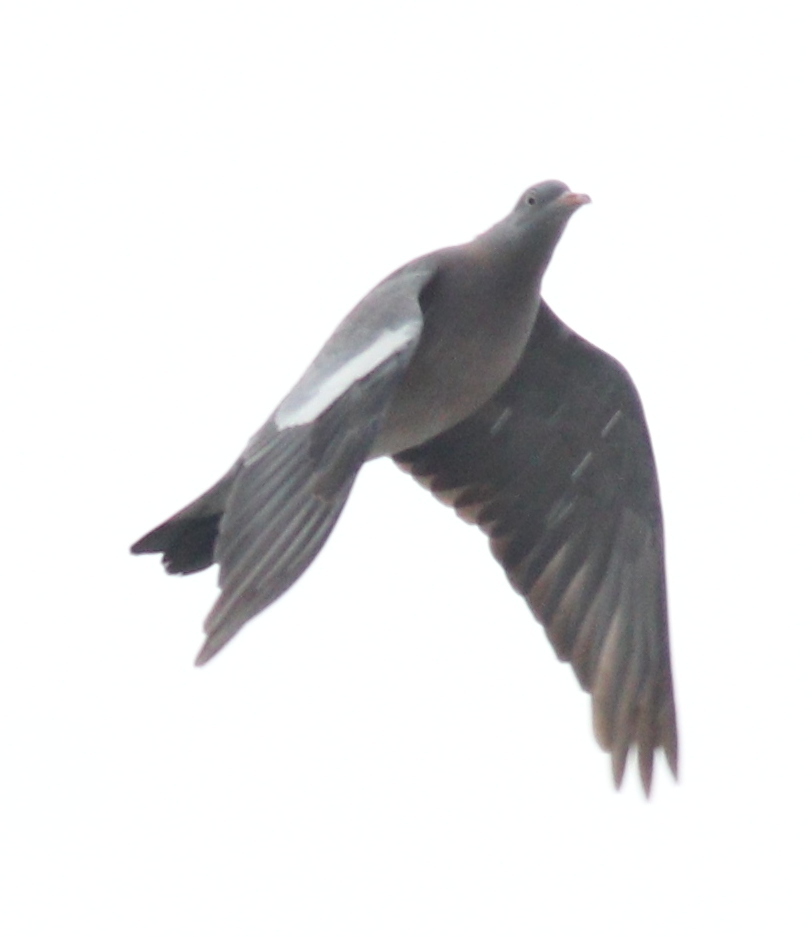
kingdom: Animalia
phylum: Chordata
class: Aves
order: Columbiformes
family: Columbidae
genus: Columba
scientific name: Columba palumbus
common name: Common wood pigeon
